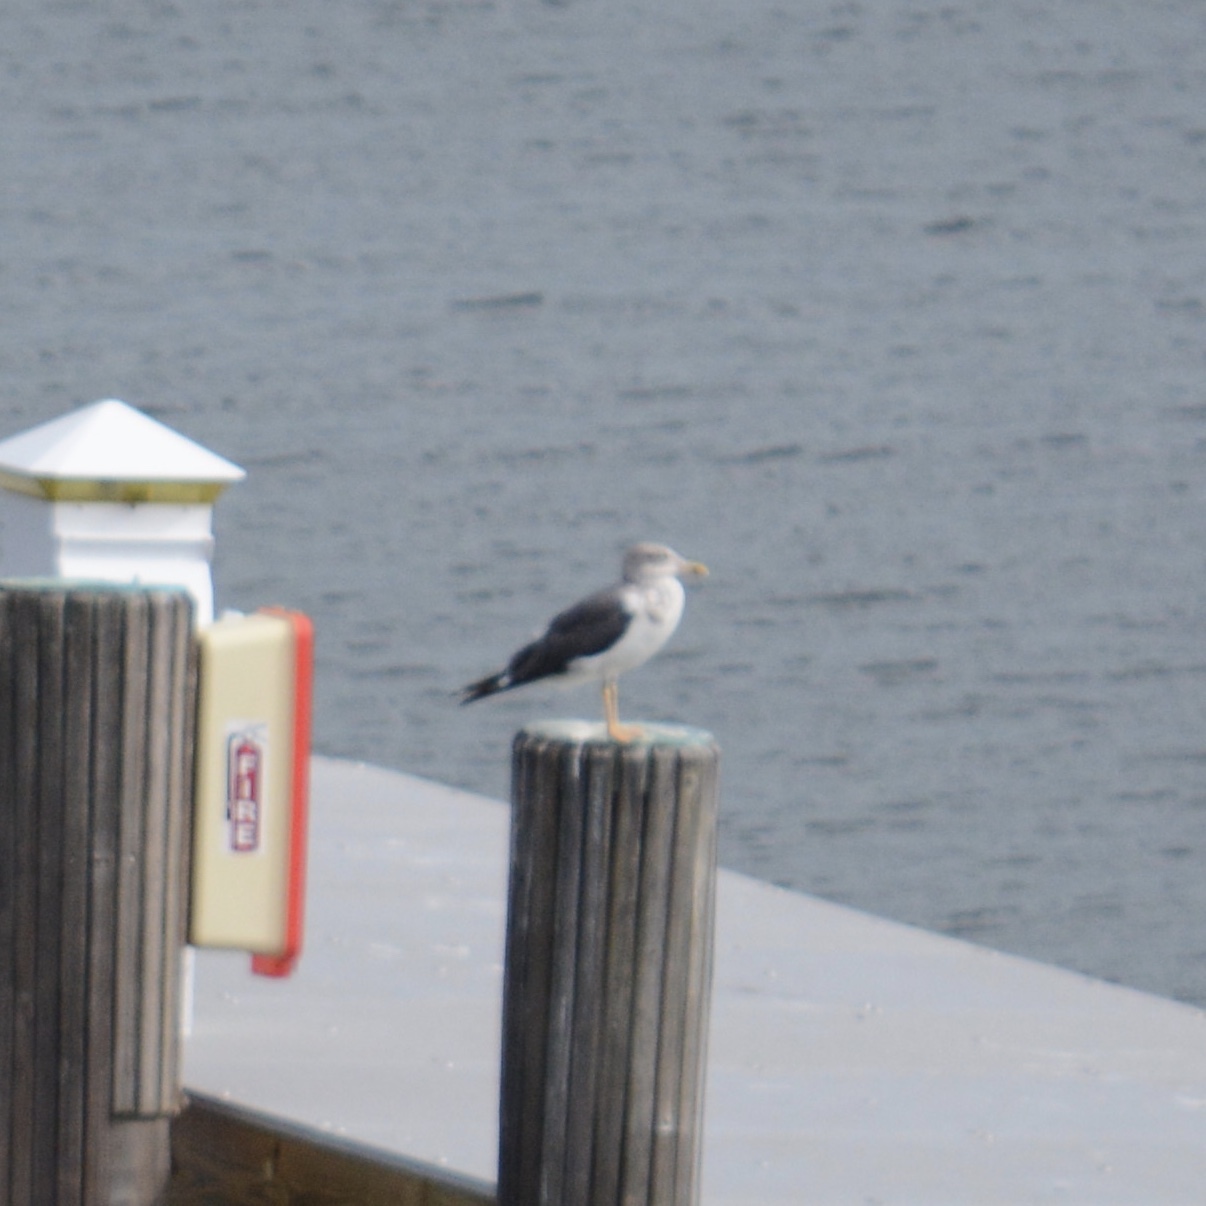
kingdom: Animalia
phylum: Chordata
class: Aves
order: Charadriiformes
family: Laridae
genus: Larus
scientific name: Larus fuscus
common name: Lesser black-backed gull
